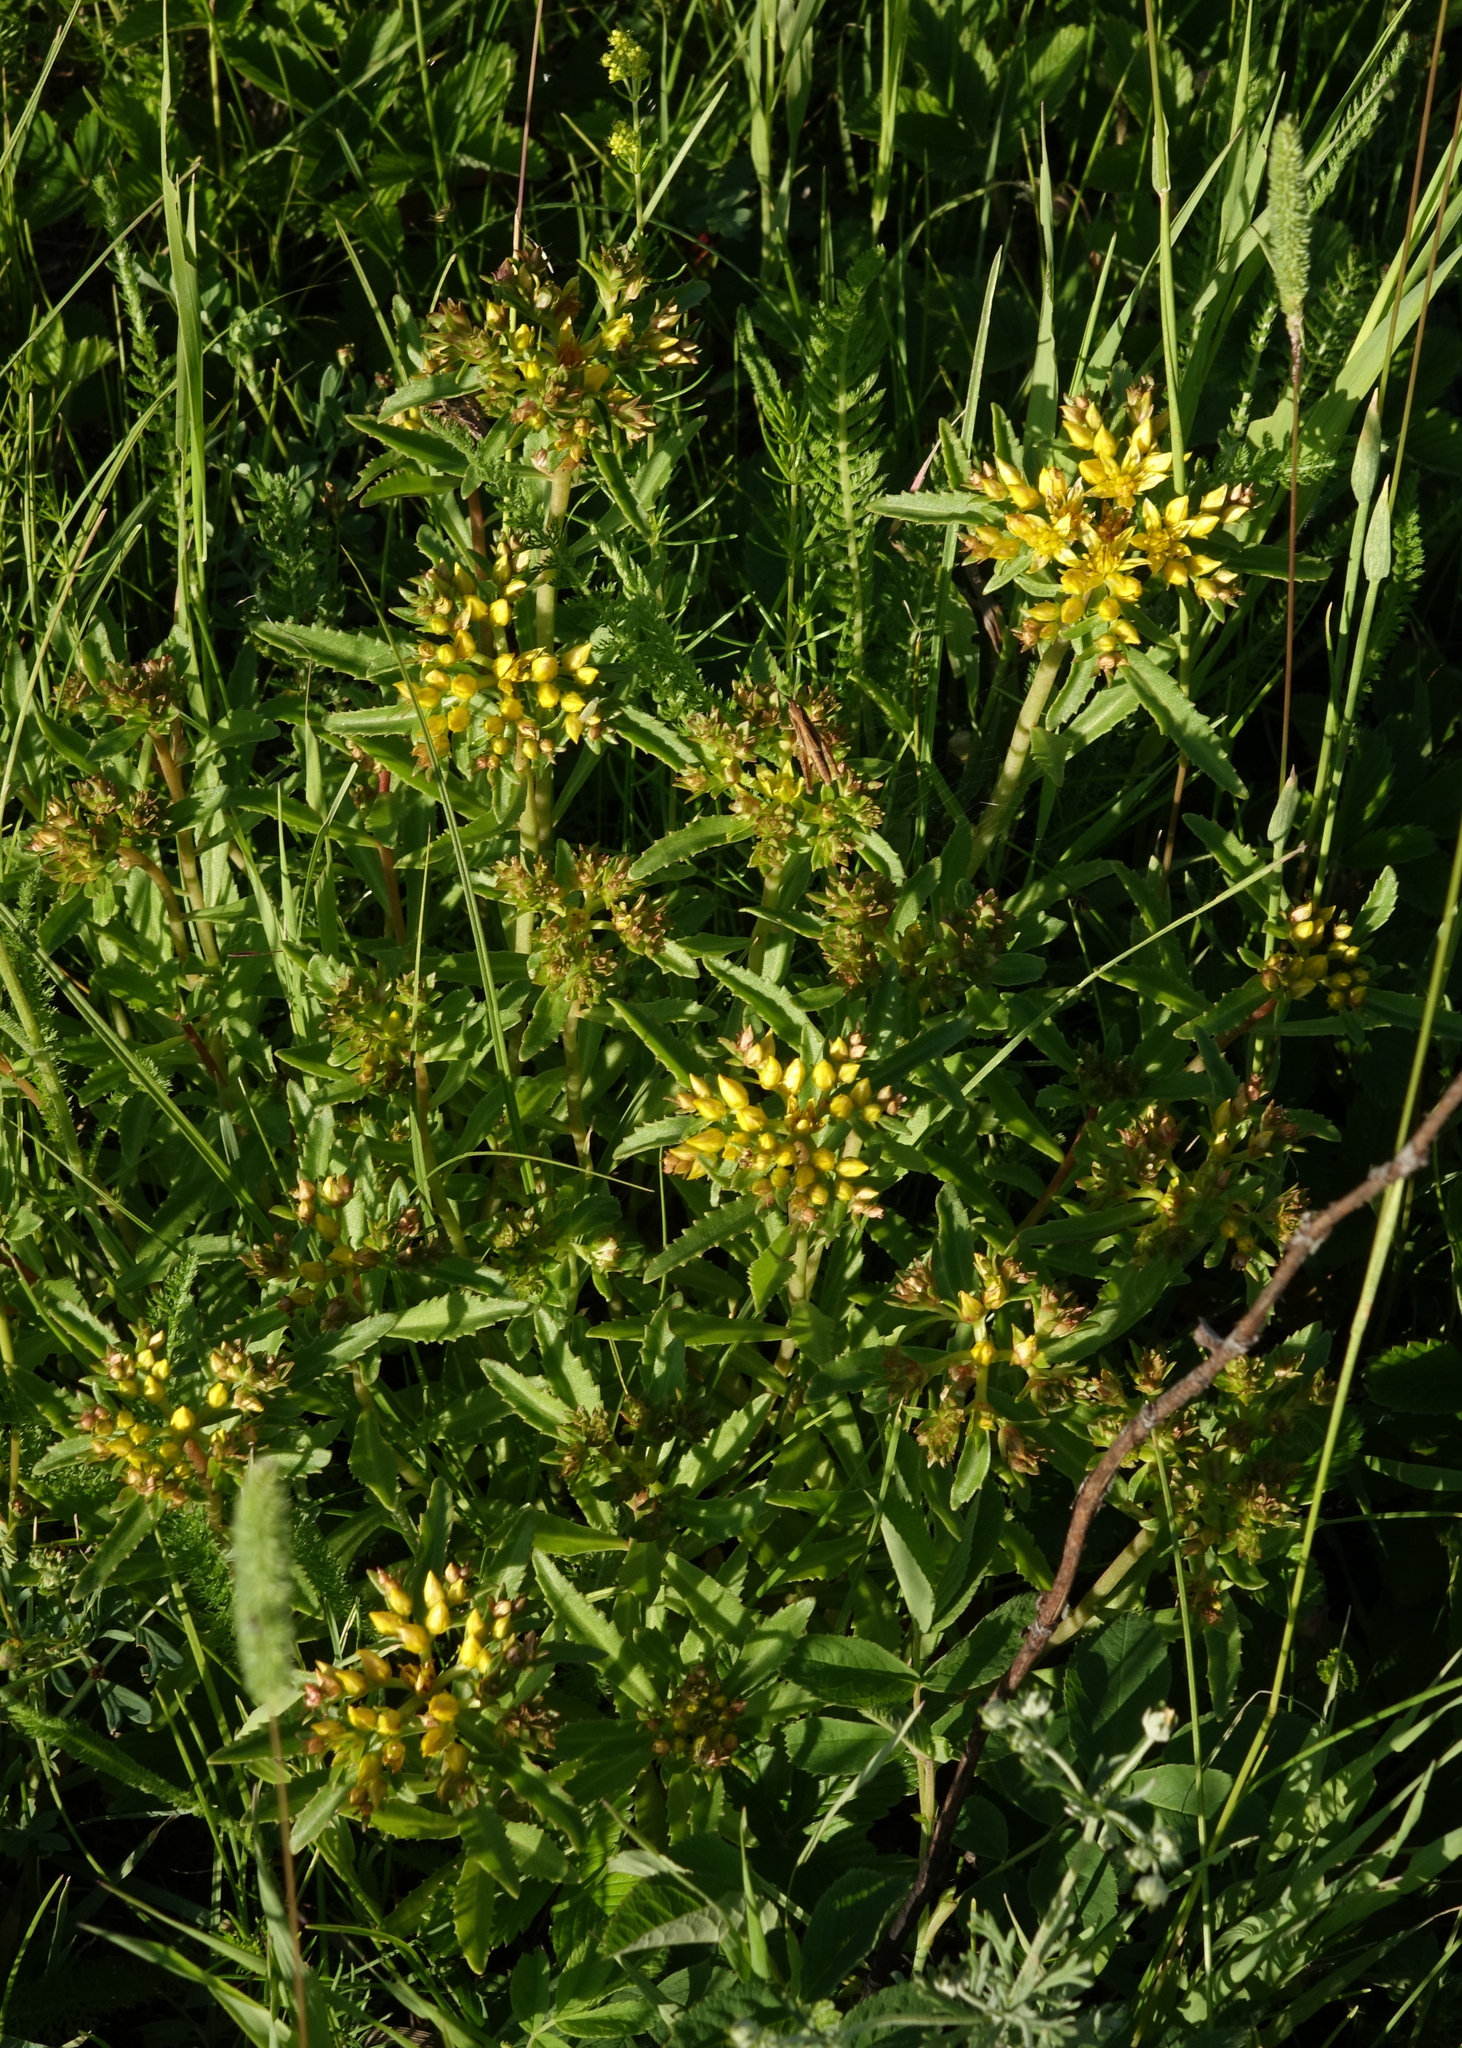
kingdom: Plantae
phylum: Tracheophyta
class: Magnoliopsida
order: Saxifragales
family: Crassulaceae
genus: Phedimus
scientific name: Phedimus aizoon
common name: Orpin aizoon
